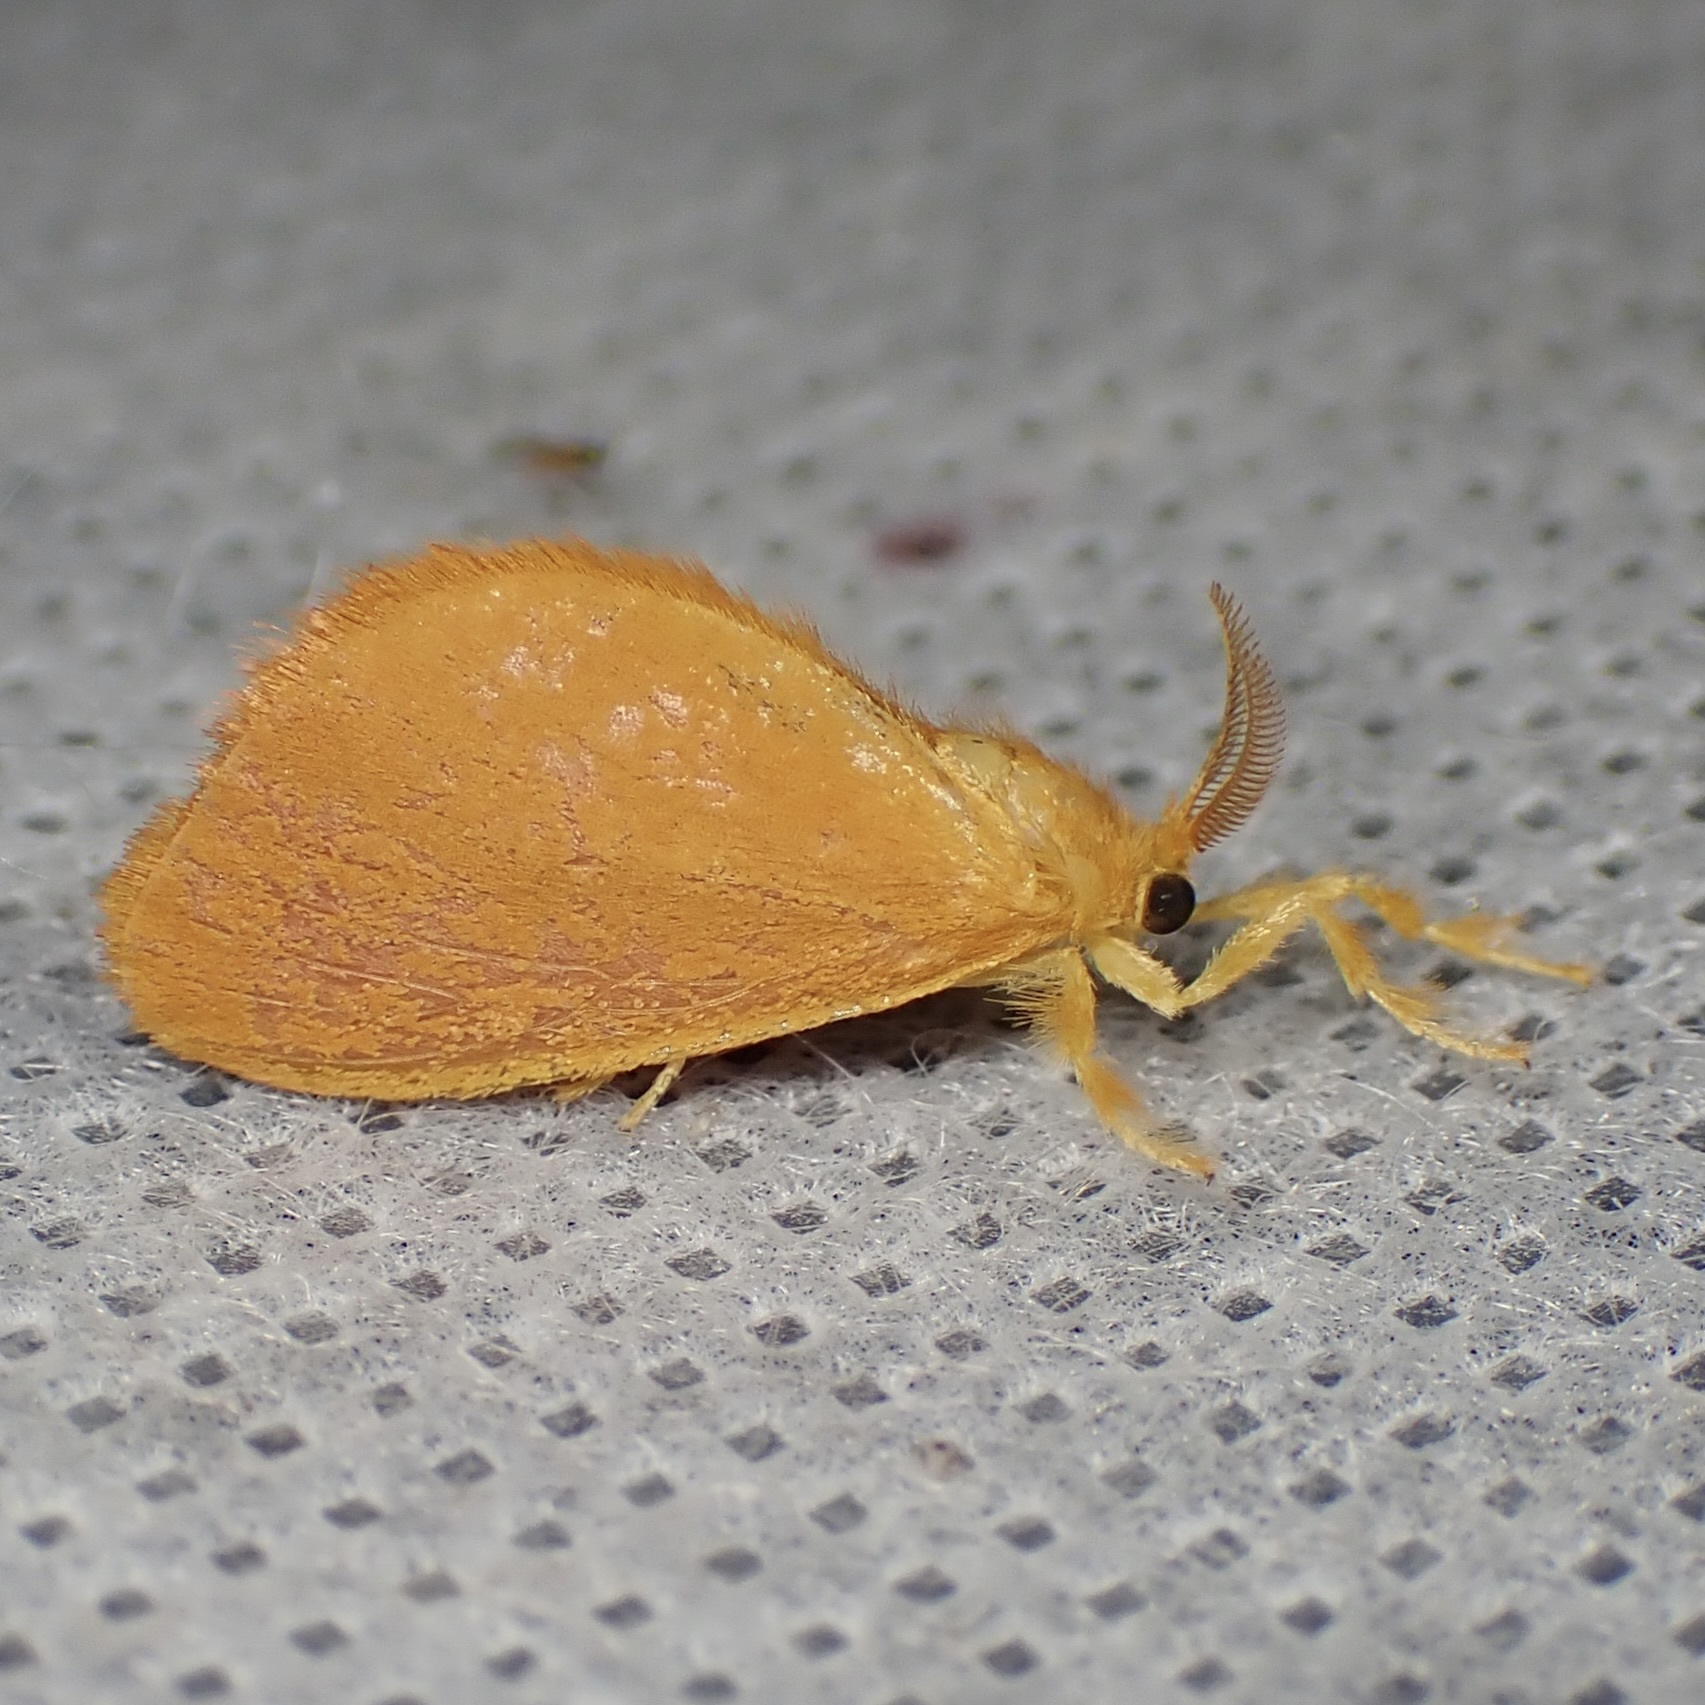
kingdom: Animalia
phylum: Arthropoda
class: Insecta
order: Lepidoptera
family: Dalceridae
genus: Dalcerides
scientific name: Dalcerides ingenita
